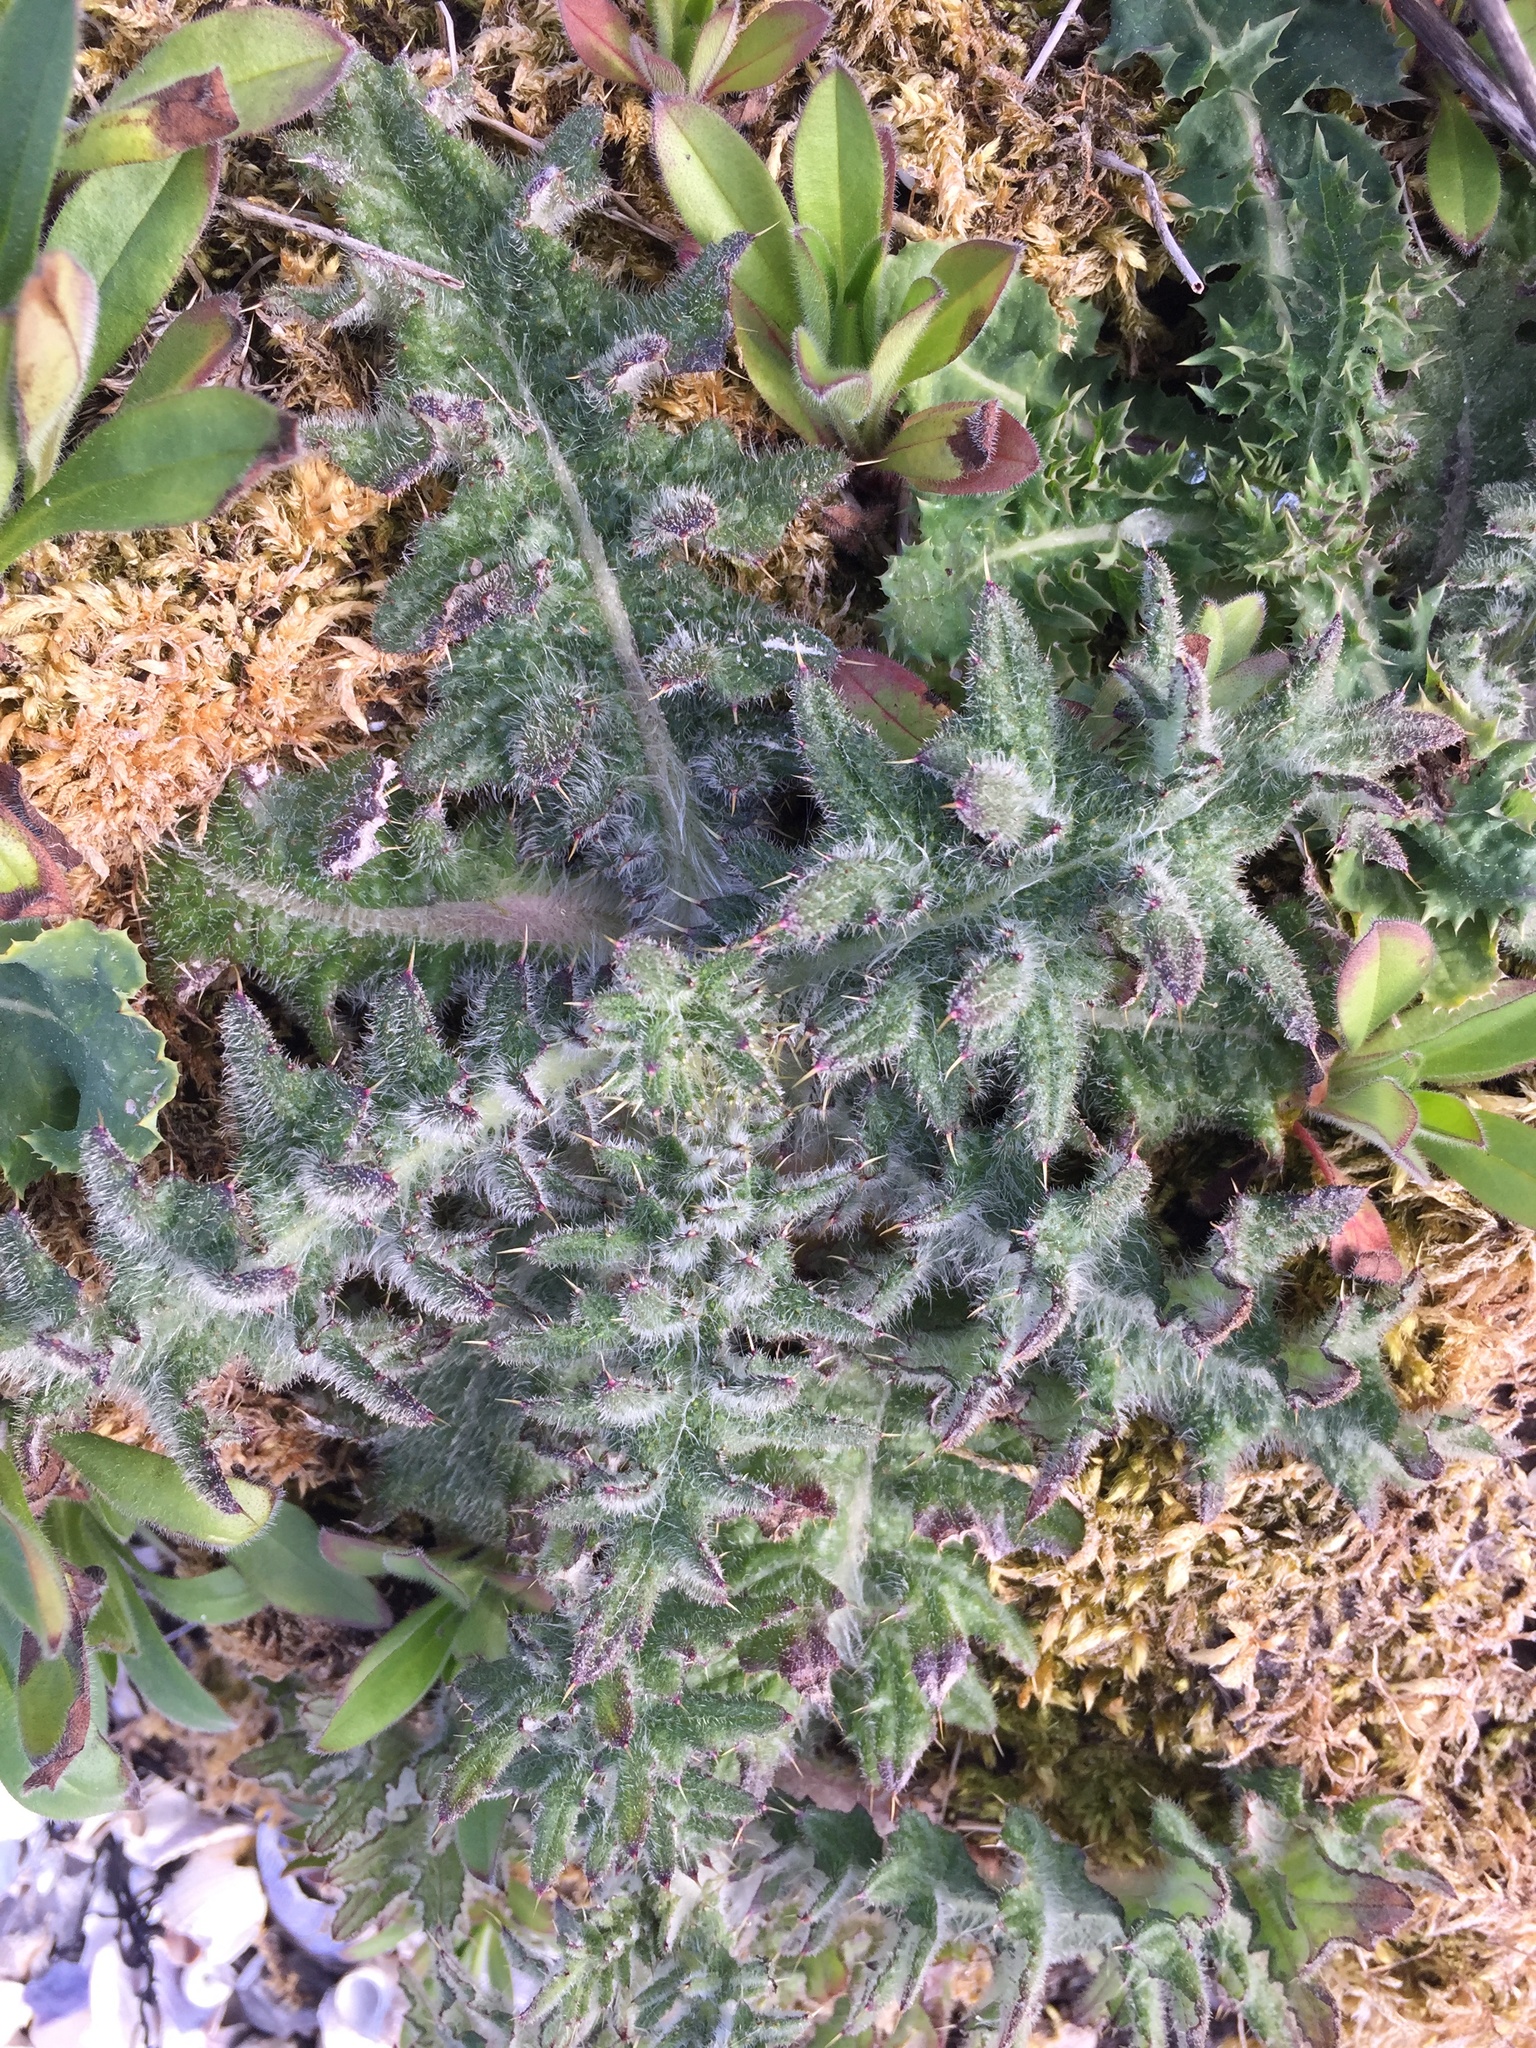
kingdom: Plantae
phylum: Tracheophyta
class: Magnoliopsida
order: Asterales
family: Asteraceae
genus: Cirsium
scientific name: Cirsium vulgare
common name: Bull thistle
